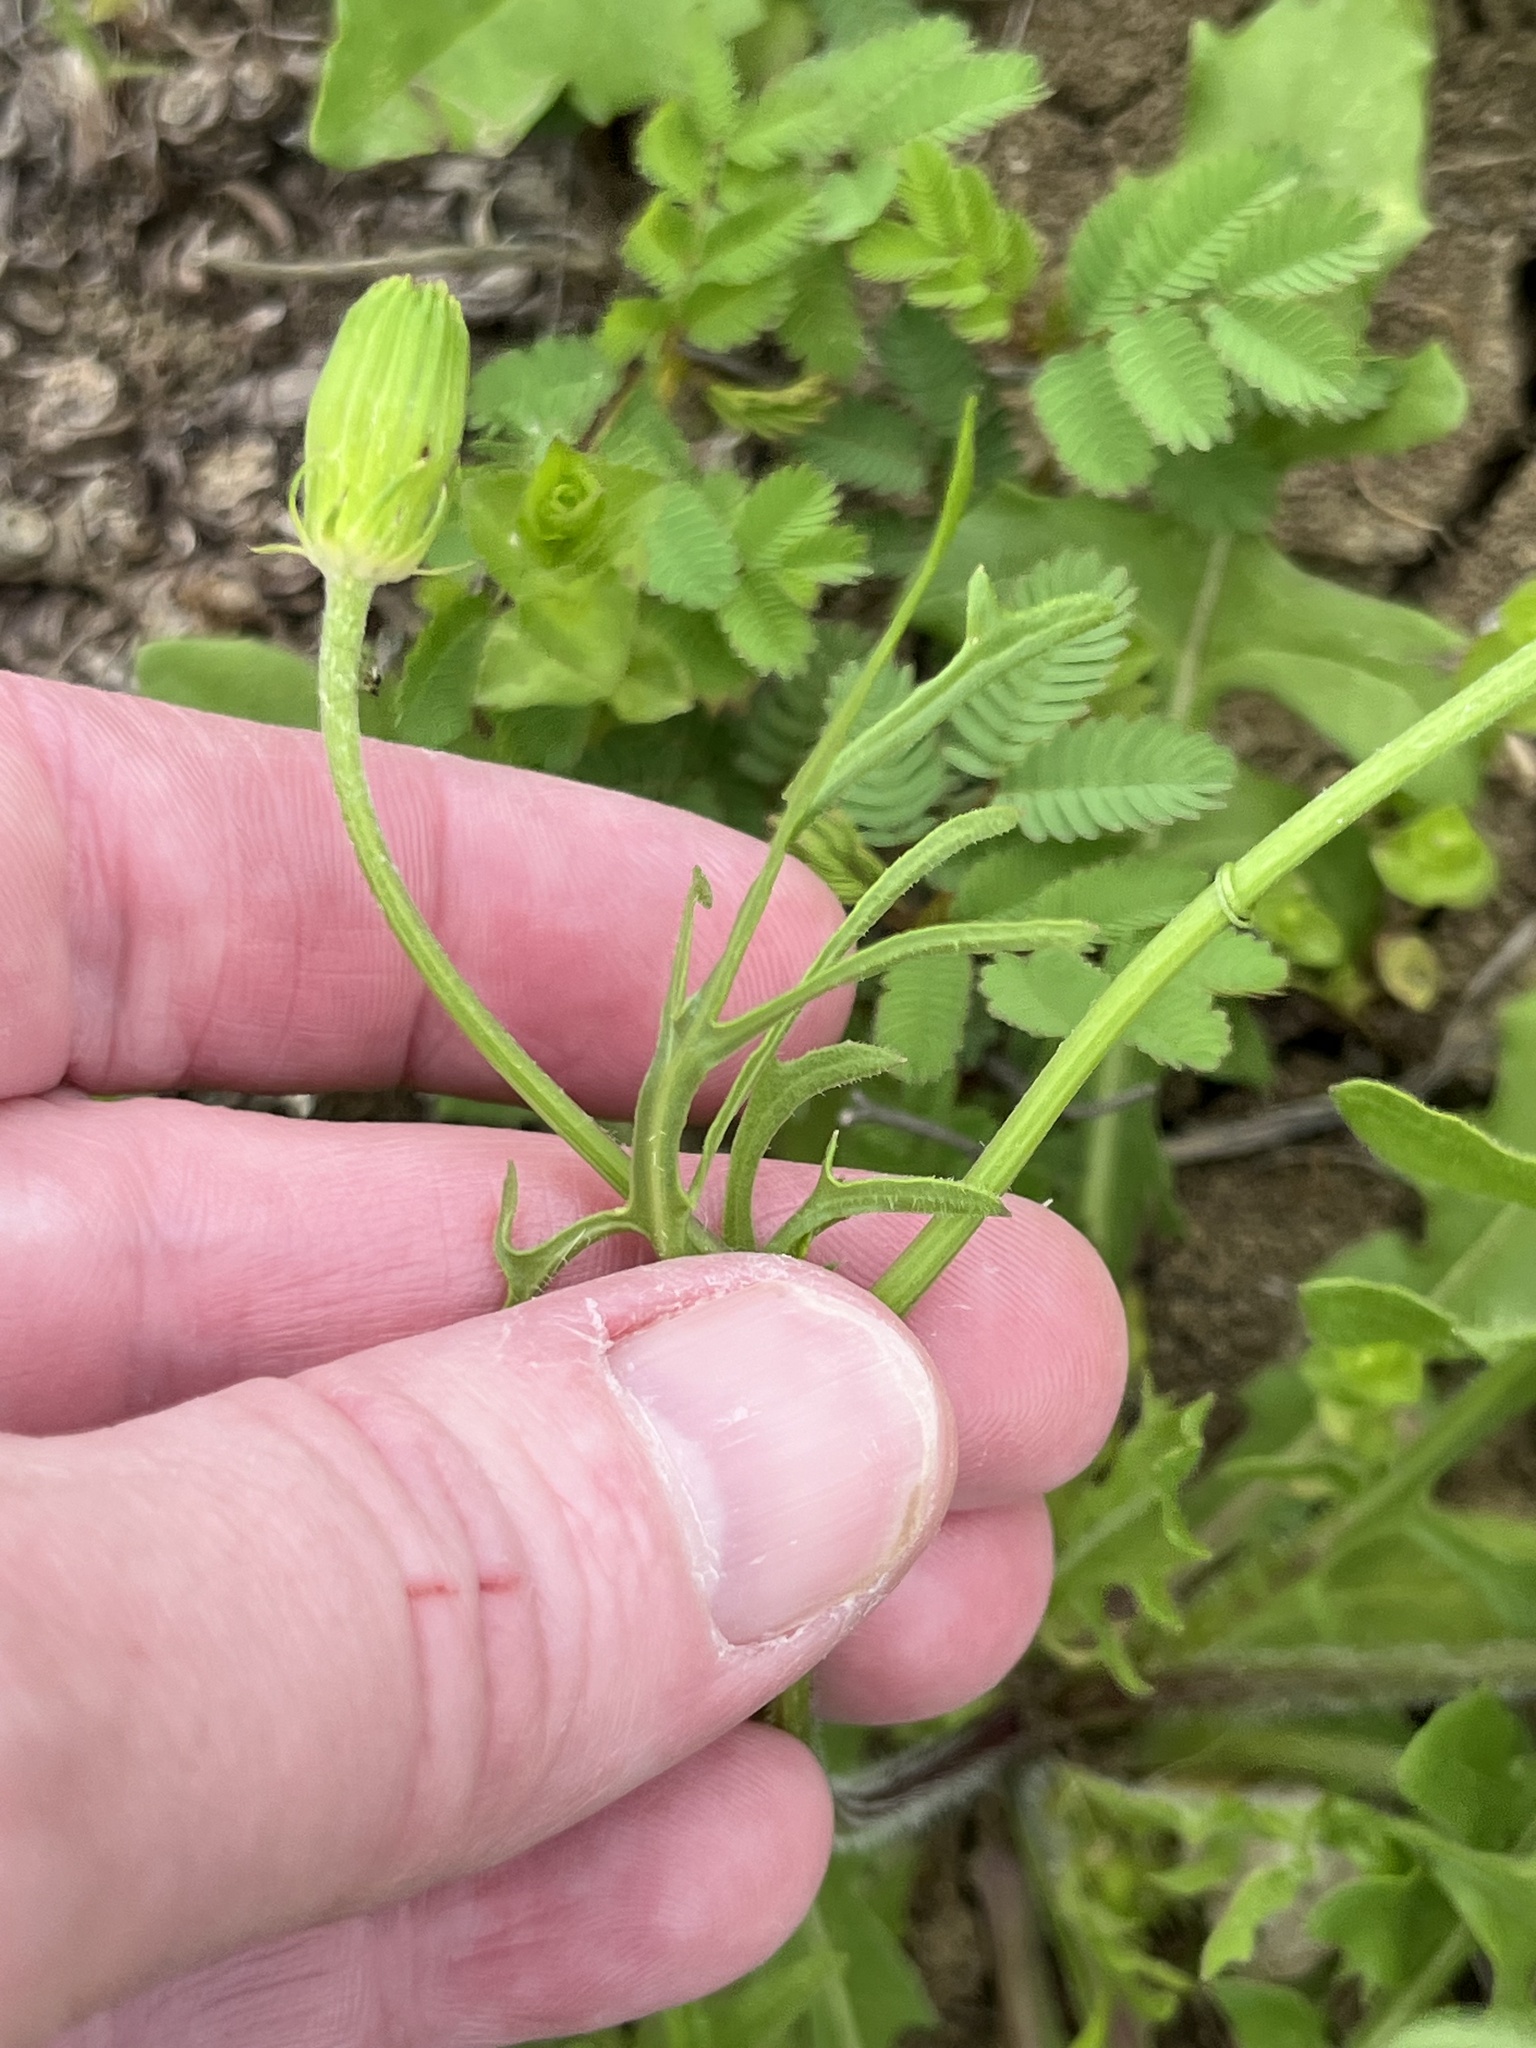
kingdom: Plantae
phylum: Tracheophyta
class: Magnoliopsida
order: Asterales
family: Asteraceae
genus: Pyrrhopappus
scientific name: Pyrrhopappus pauciflorus
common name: Texas false dandelion
